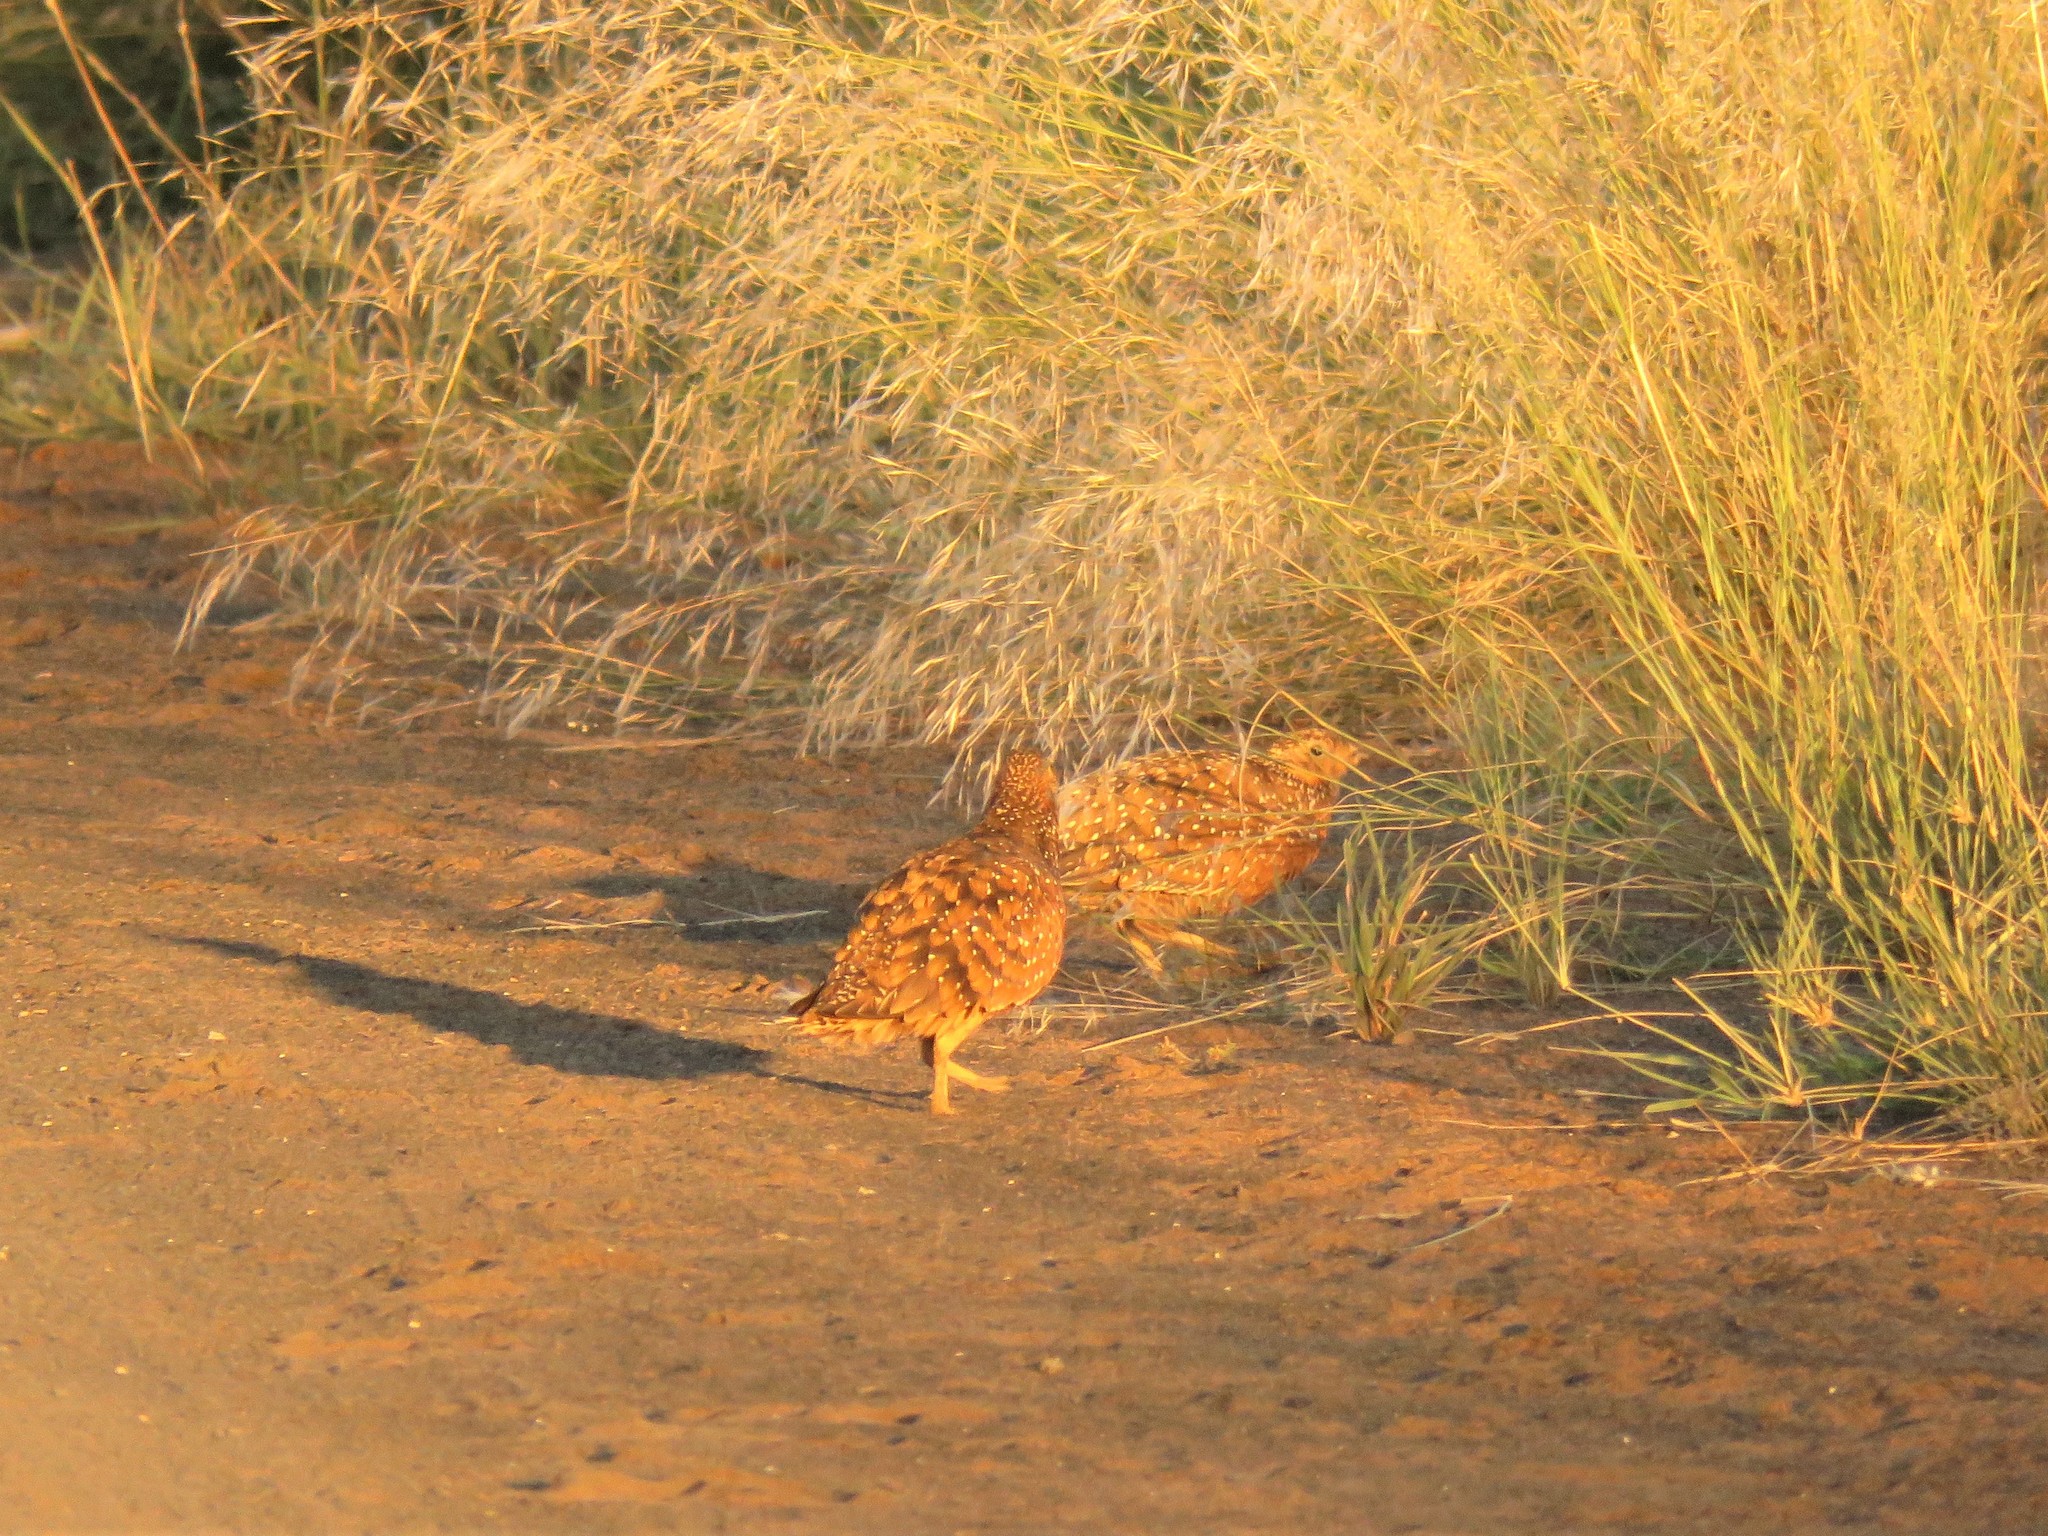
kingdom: Animalia
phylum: Chordata
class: Aves
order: Pteroclidiformes
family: Pteroclididae
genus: Pterocles
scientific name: Pterocles burchelli
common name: Burchell's sandgrouse
